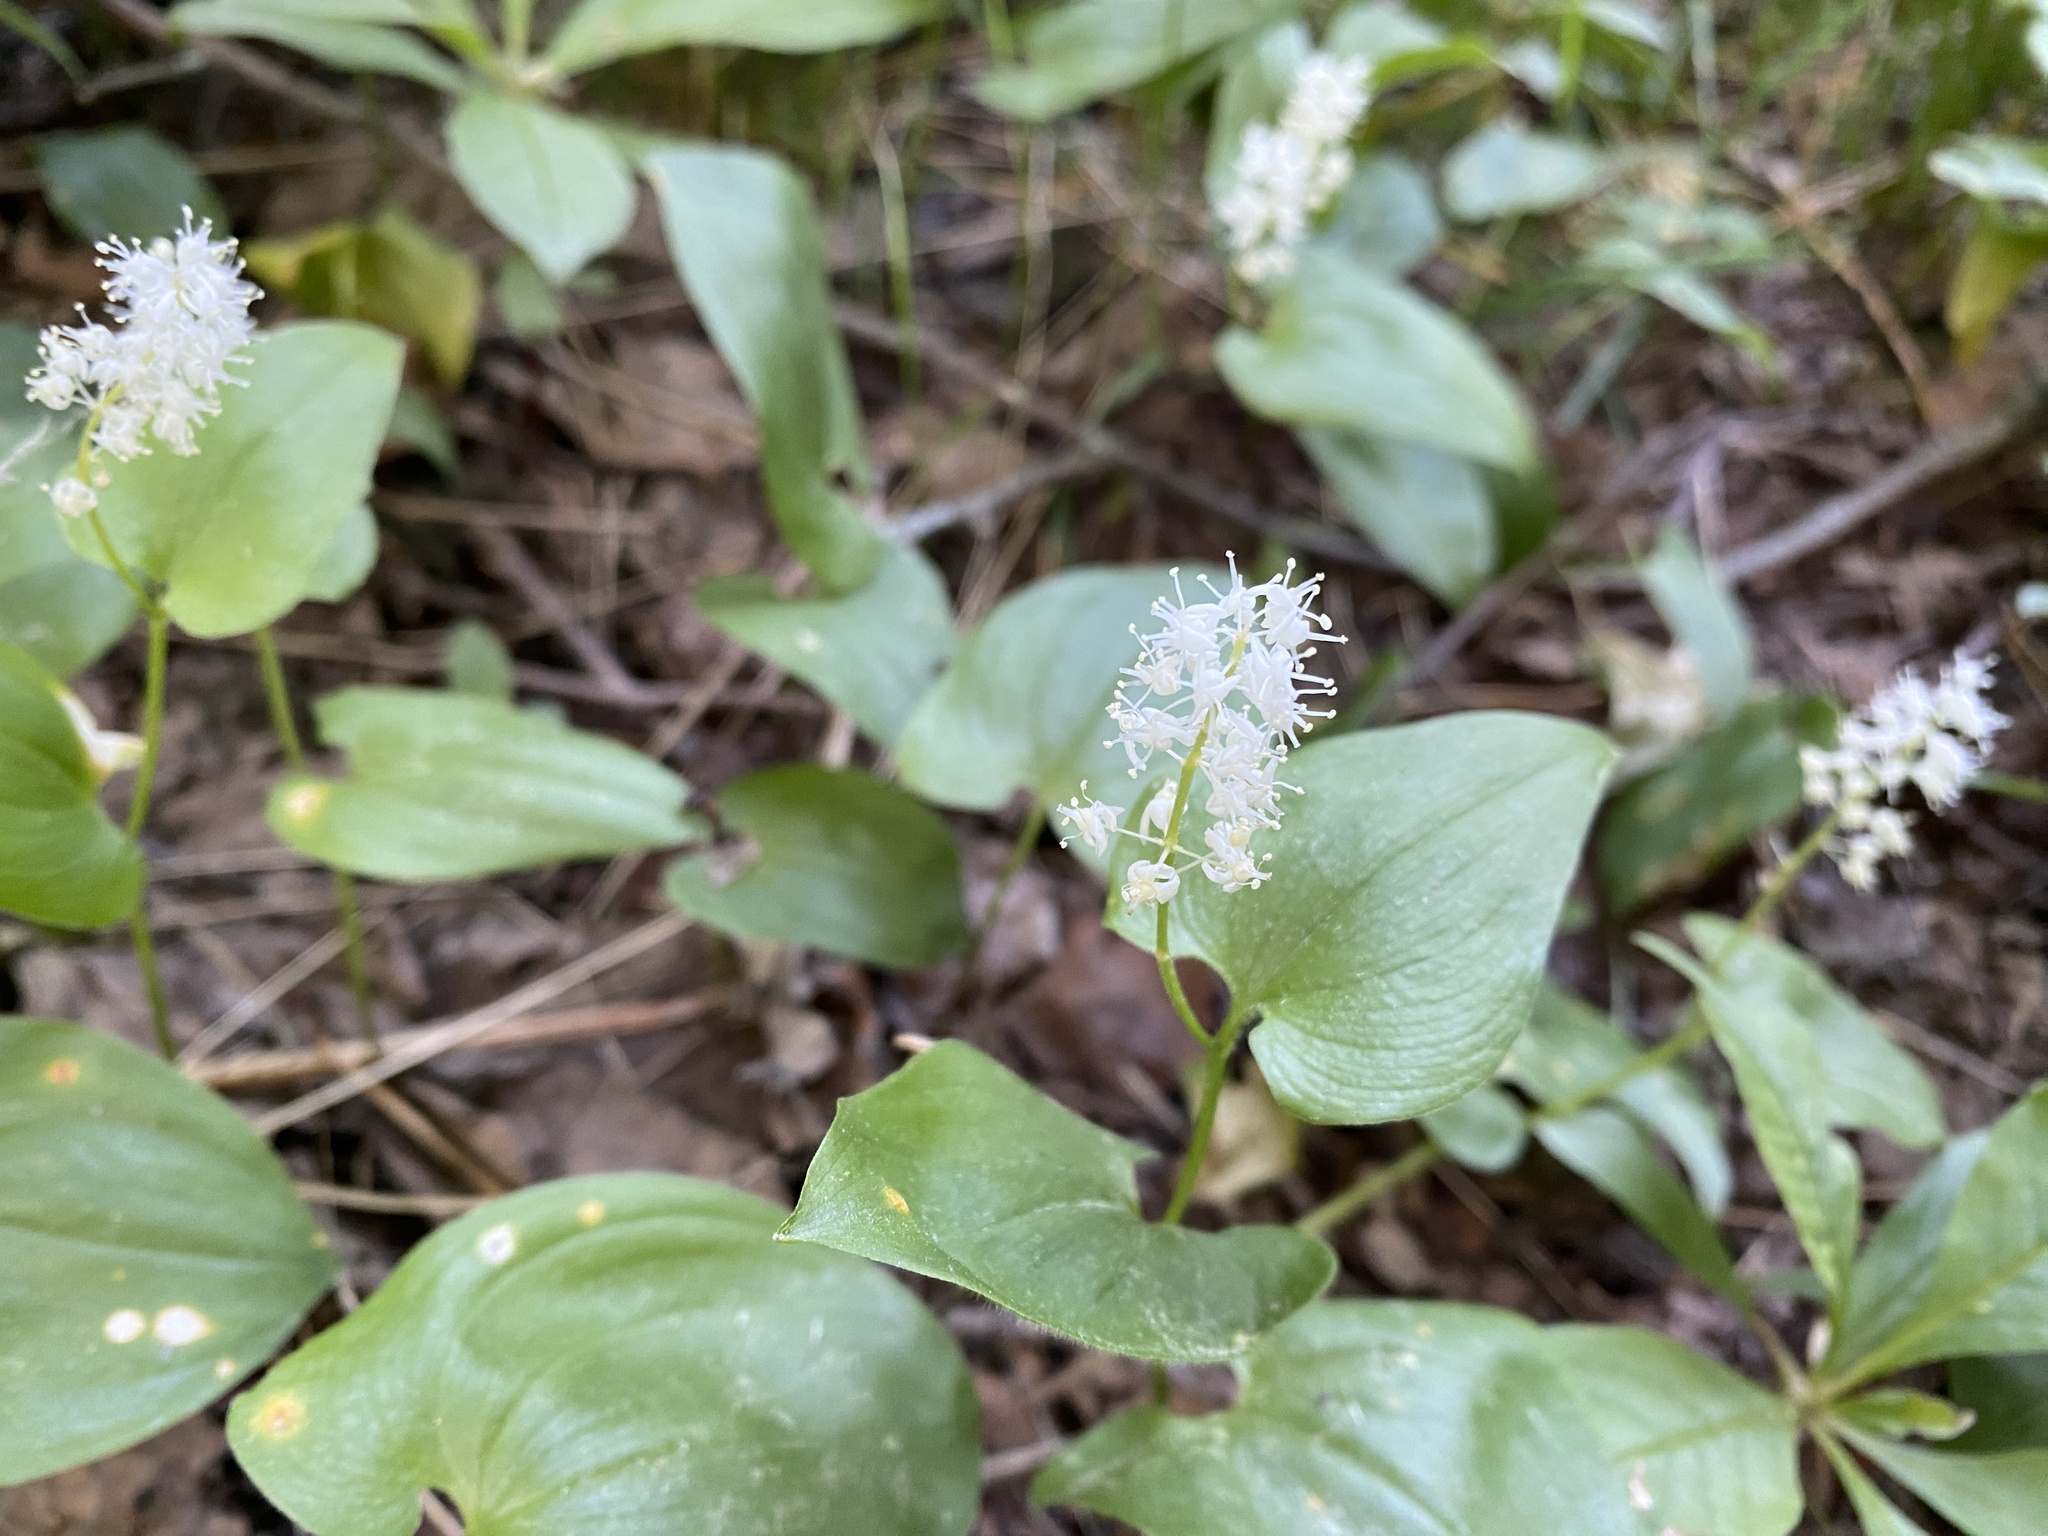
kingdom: Plantae
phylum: Tracheophyta
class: Liliopsida
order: Asparagales
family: Asparagaceae
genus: Maianthemum
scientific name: Maianthemum bifolium
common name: May lily
